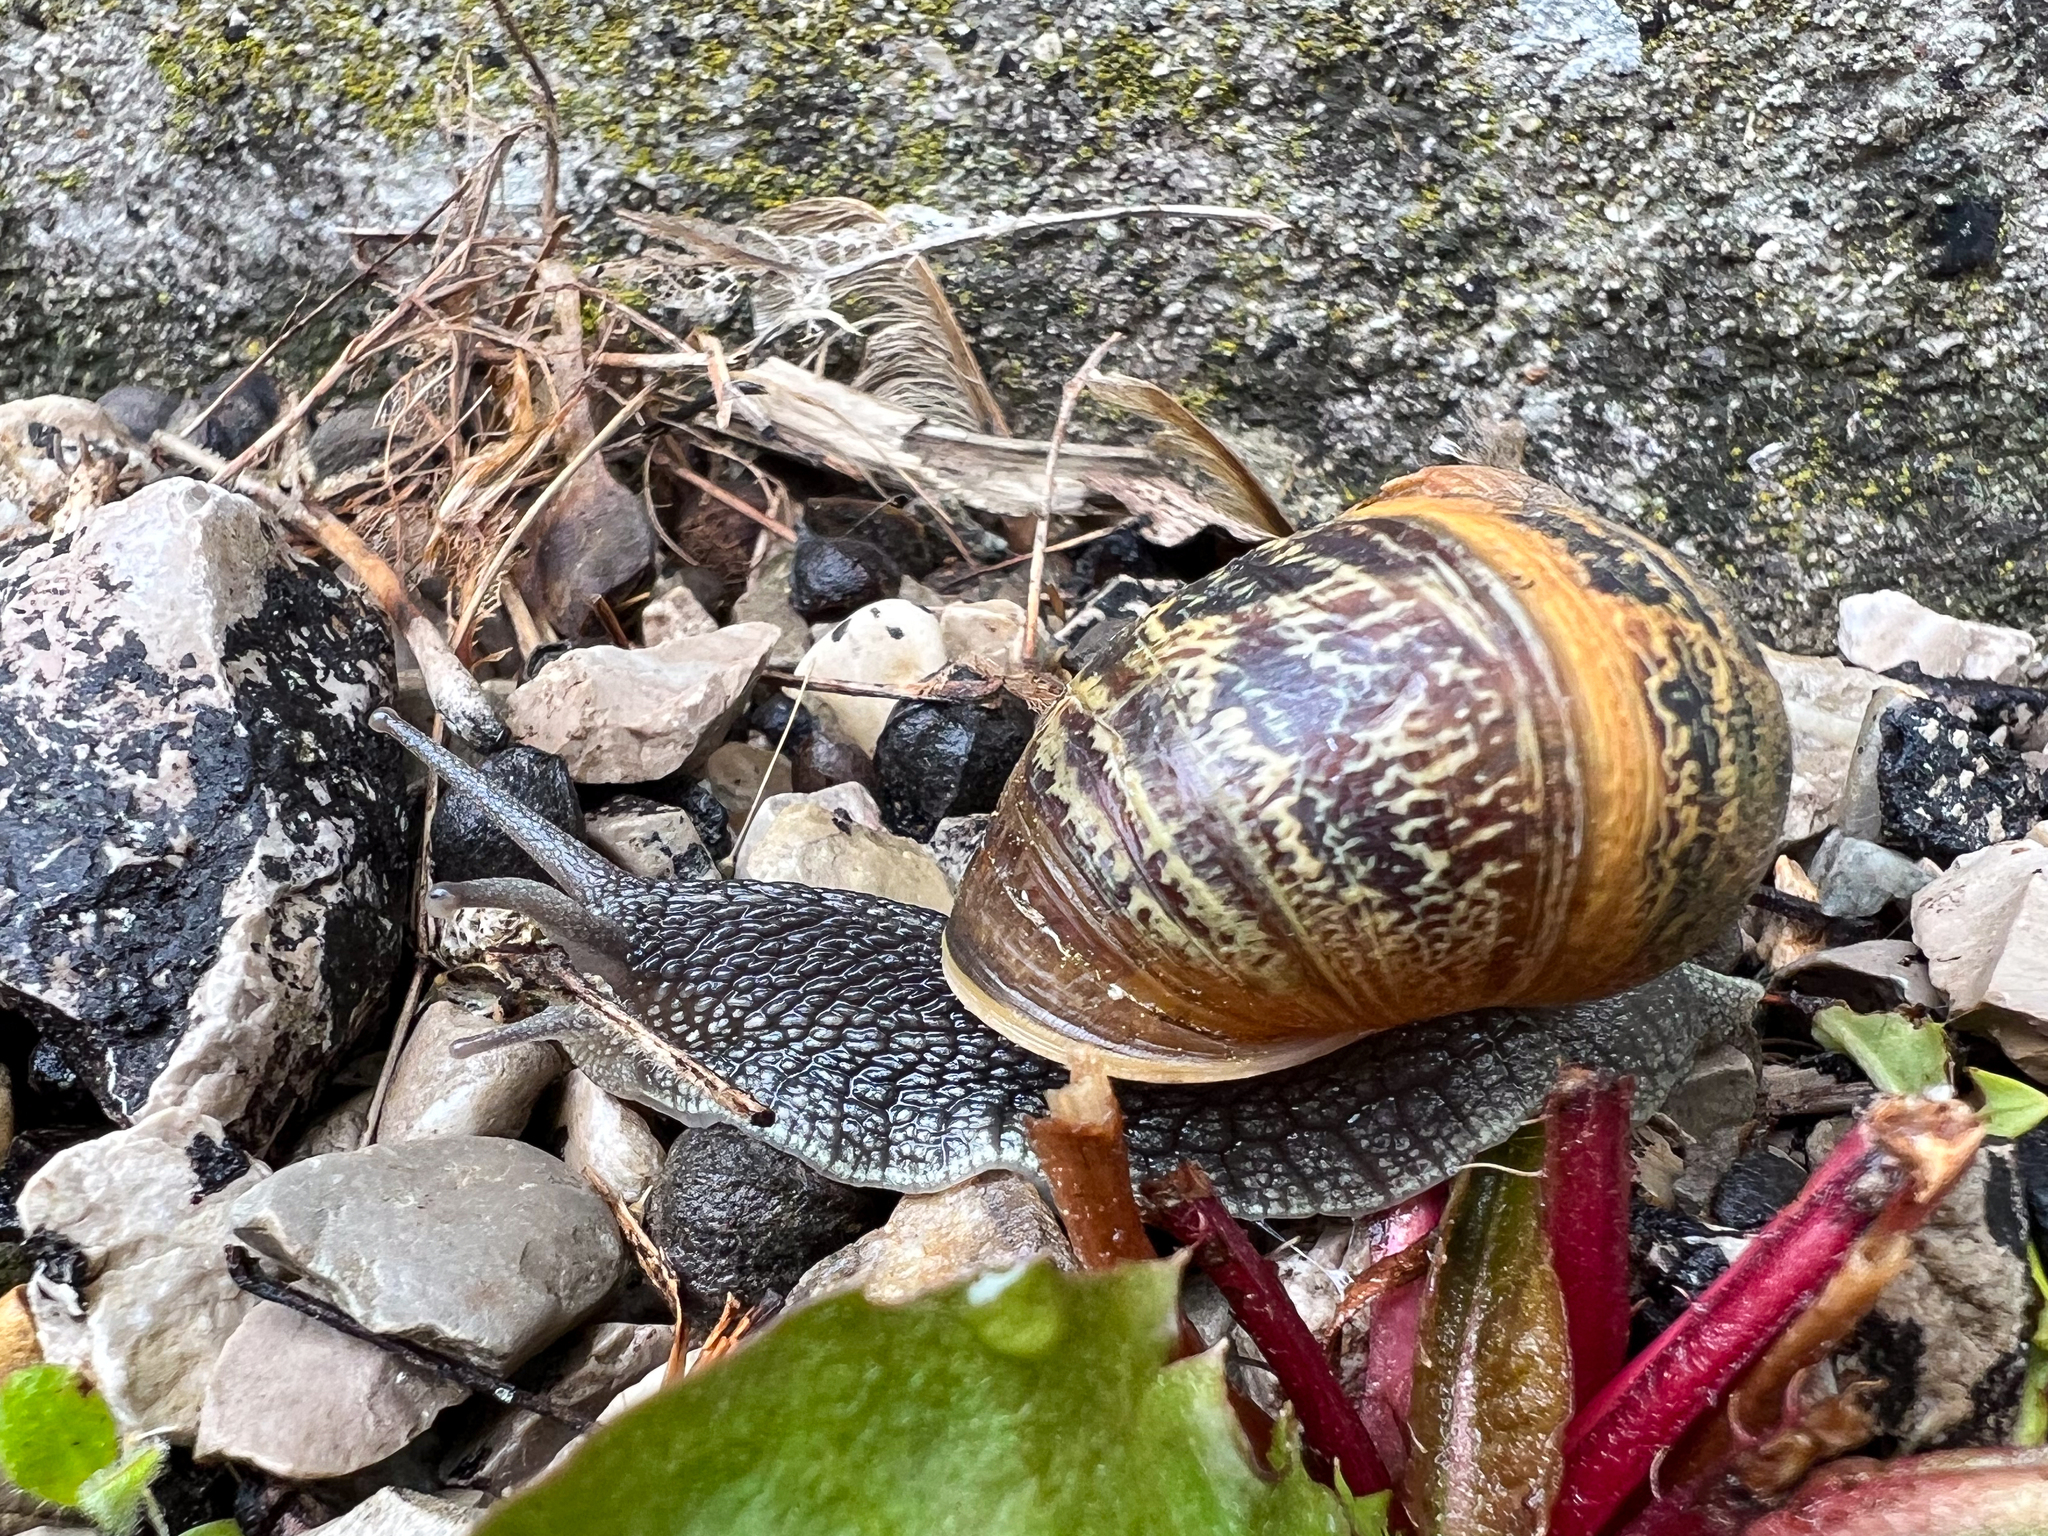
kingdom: Animalia
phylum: Mollusca
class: Gastropoda
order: Stylommatophora
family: Helicidae
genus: Cornu
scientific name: Cornu aspersum
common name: Brown garden snail
